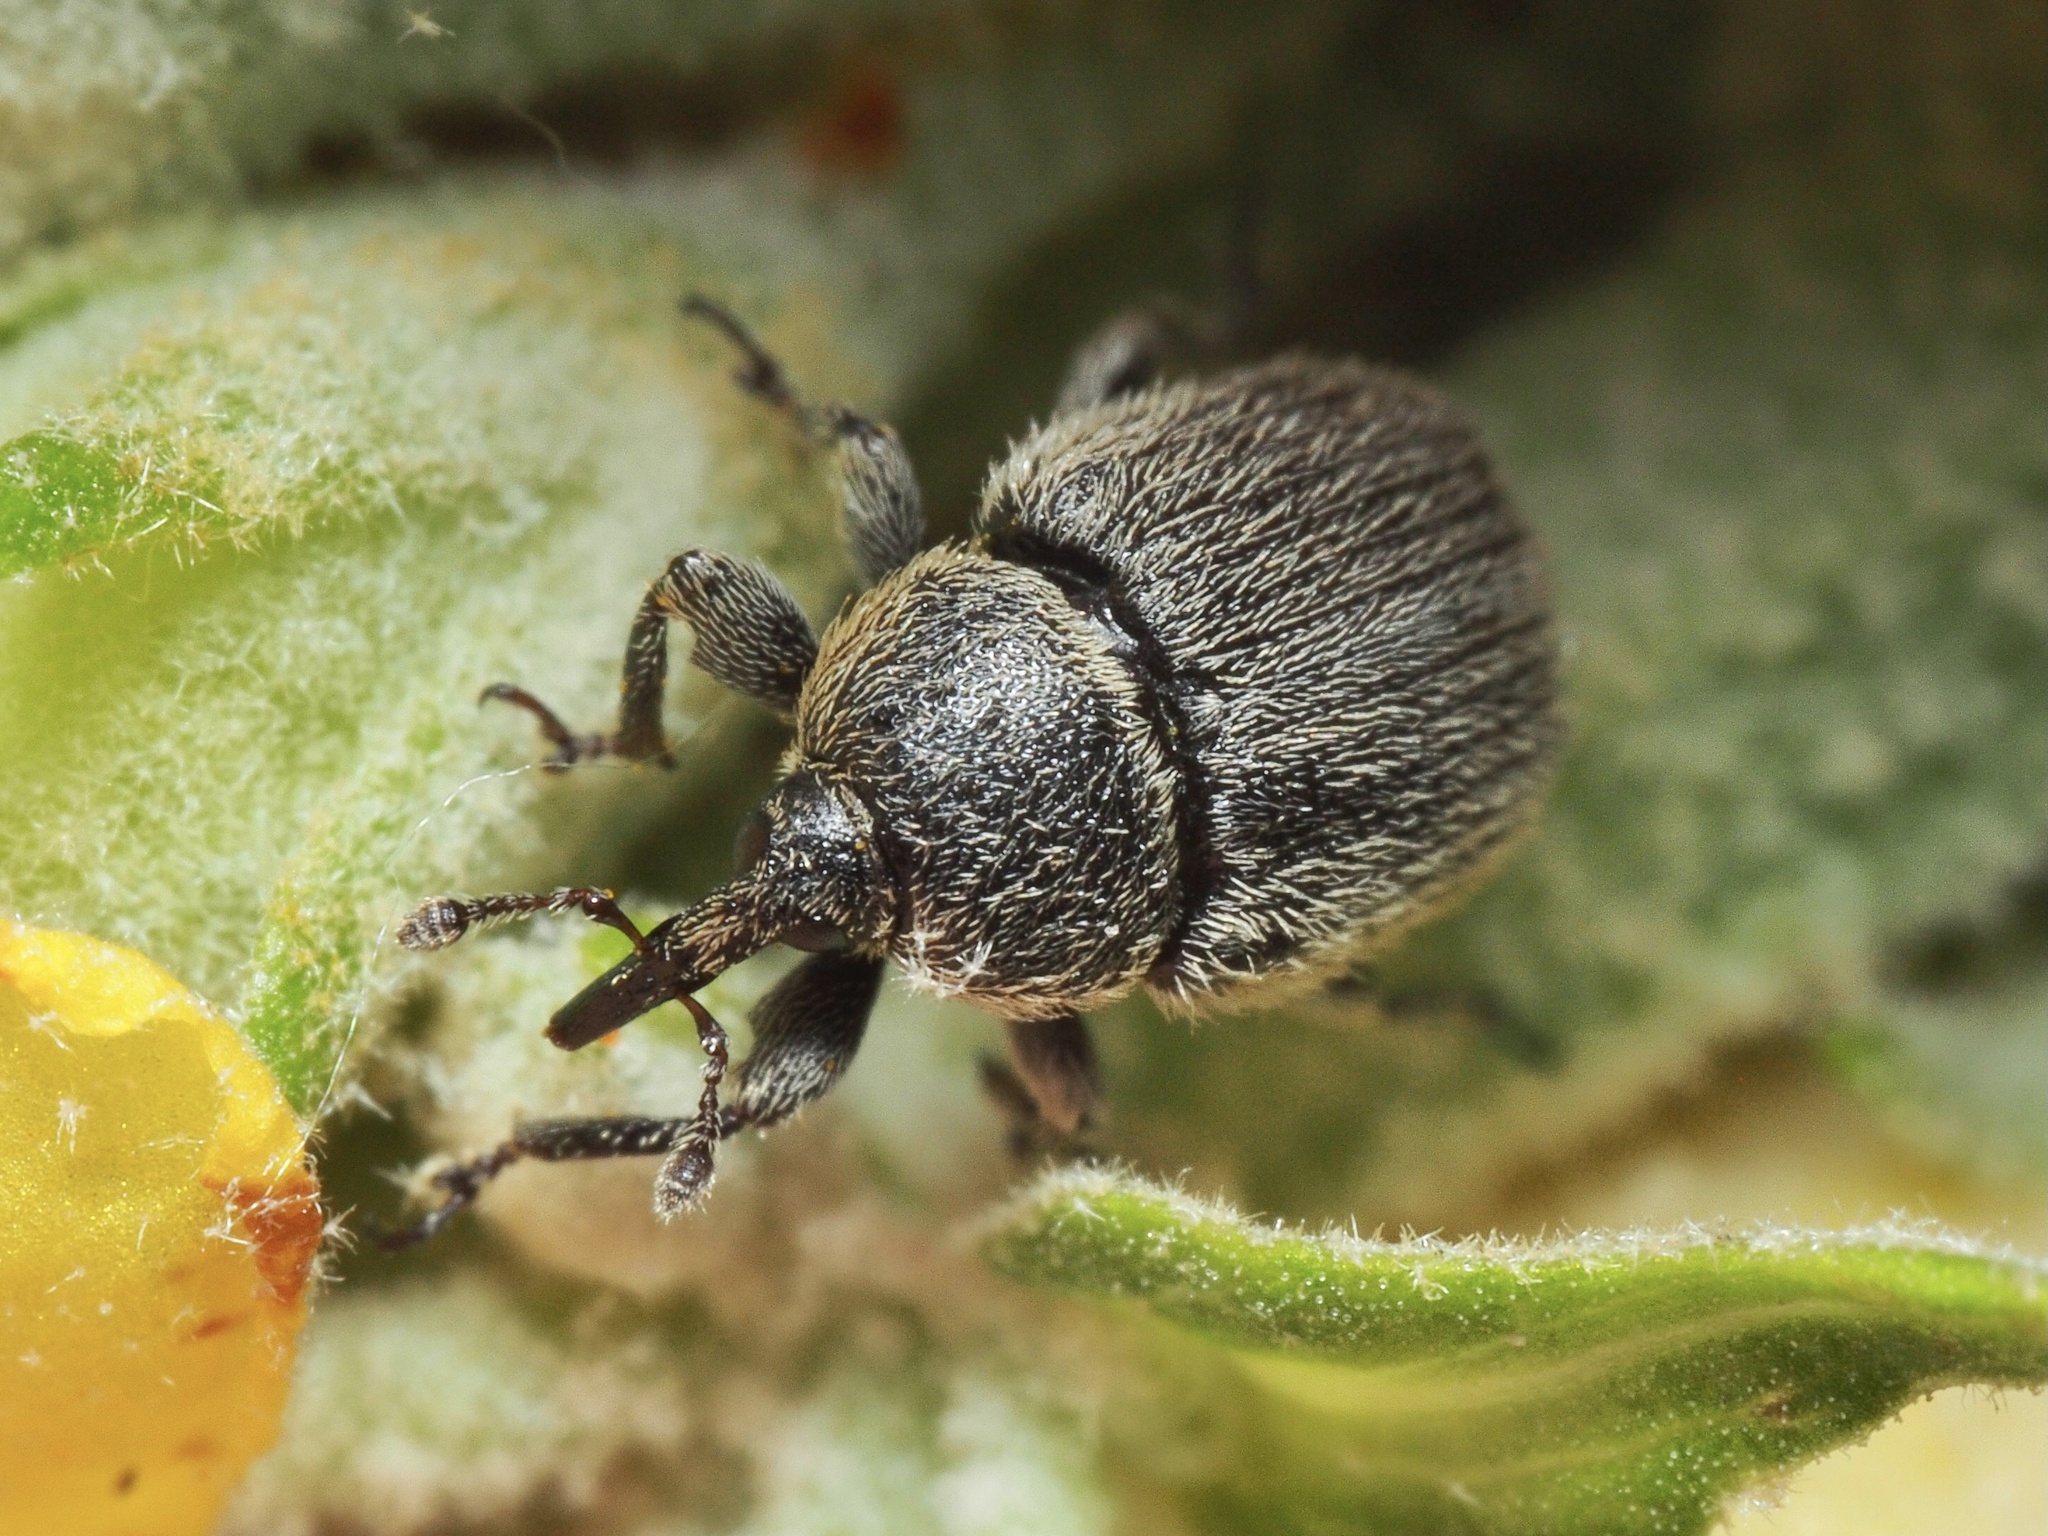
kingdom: Animalia
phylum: Arthropoda
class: Insecta
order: Coleoptera
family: Curculionidae
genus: Rhinusa
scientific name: Rhinusa tetra
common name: Weevil
